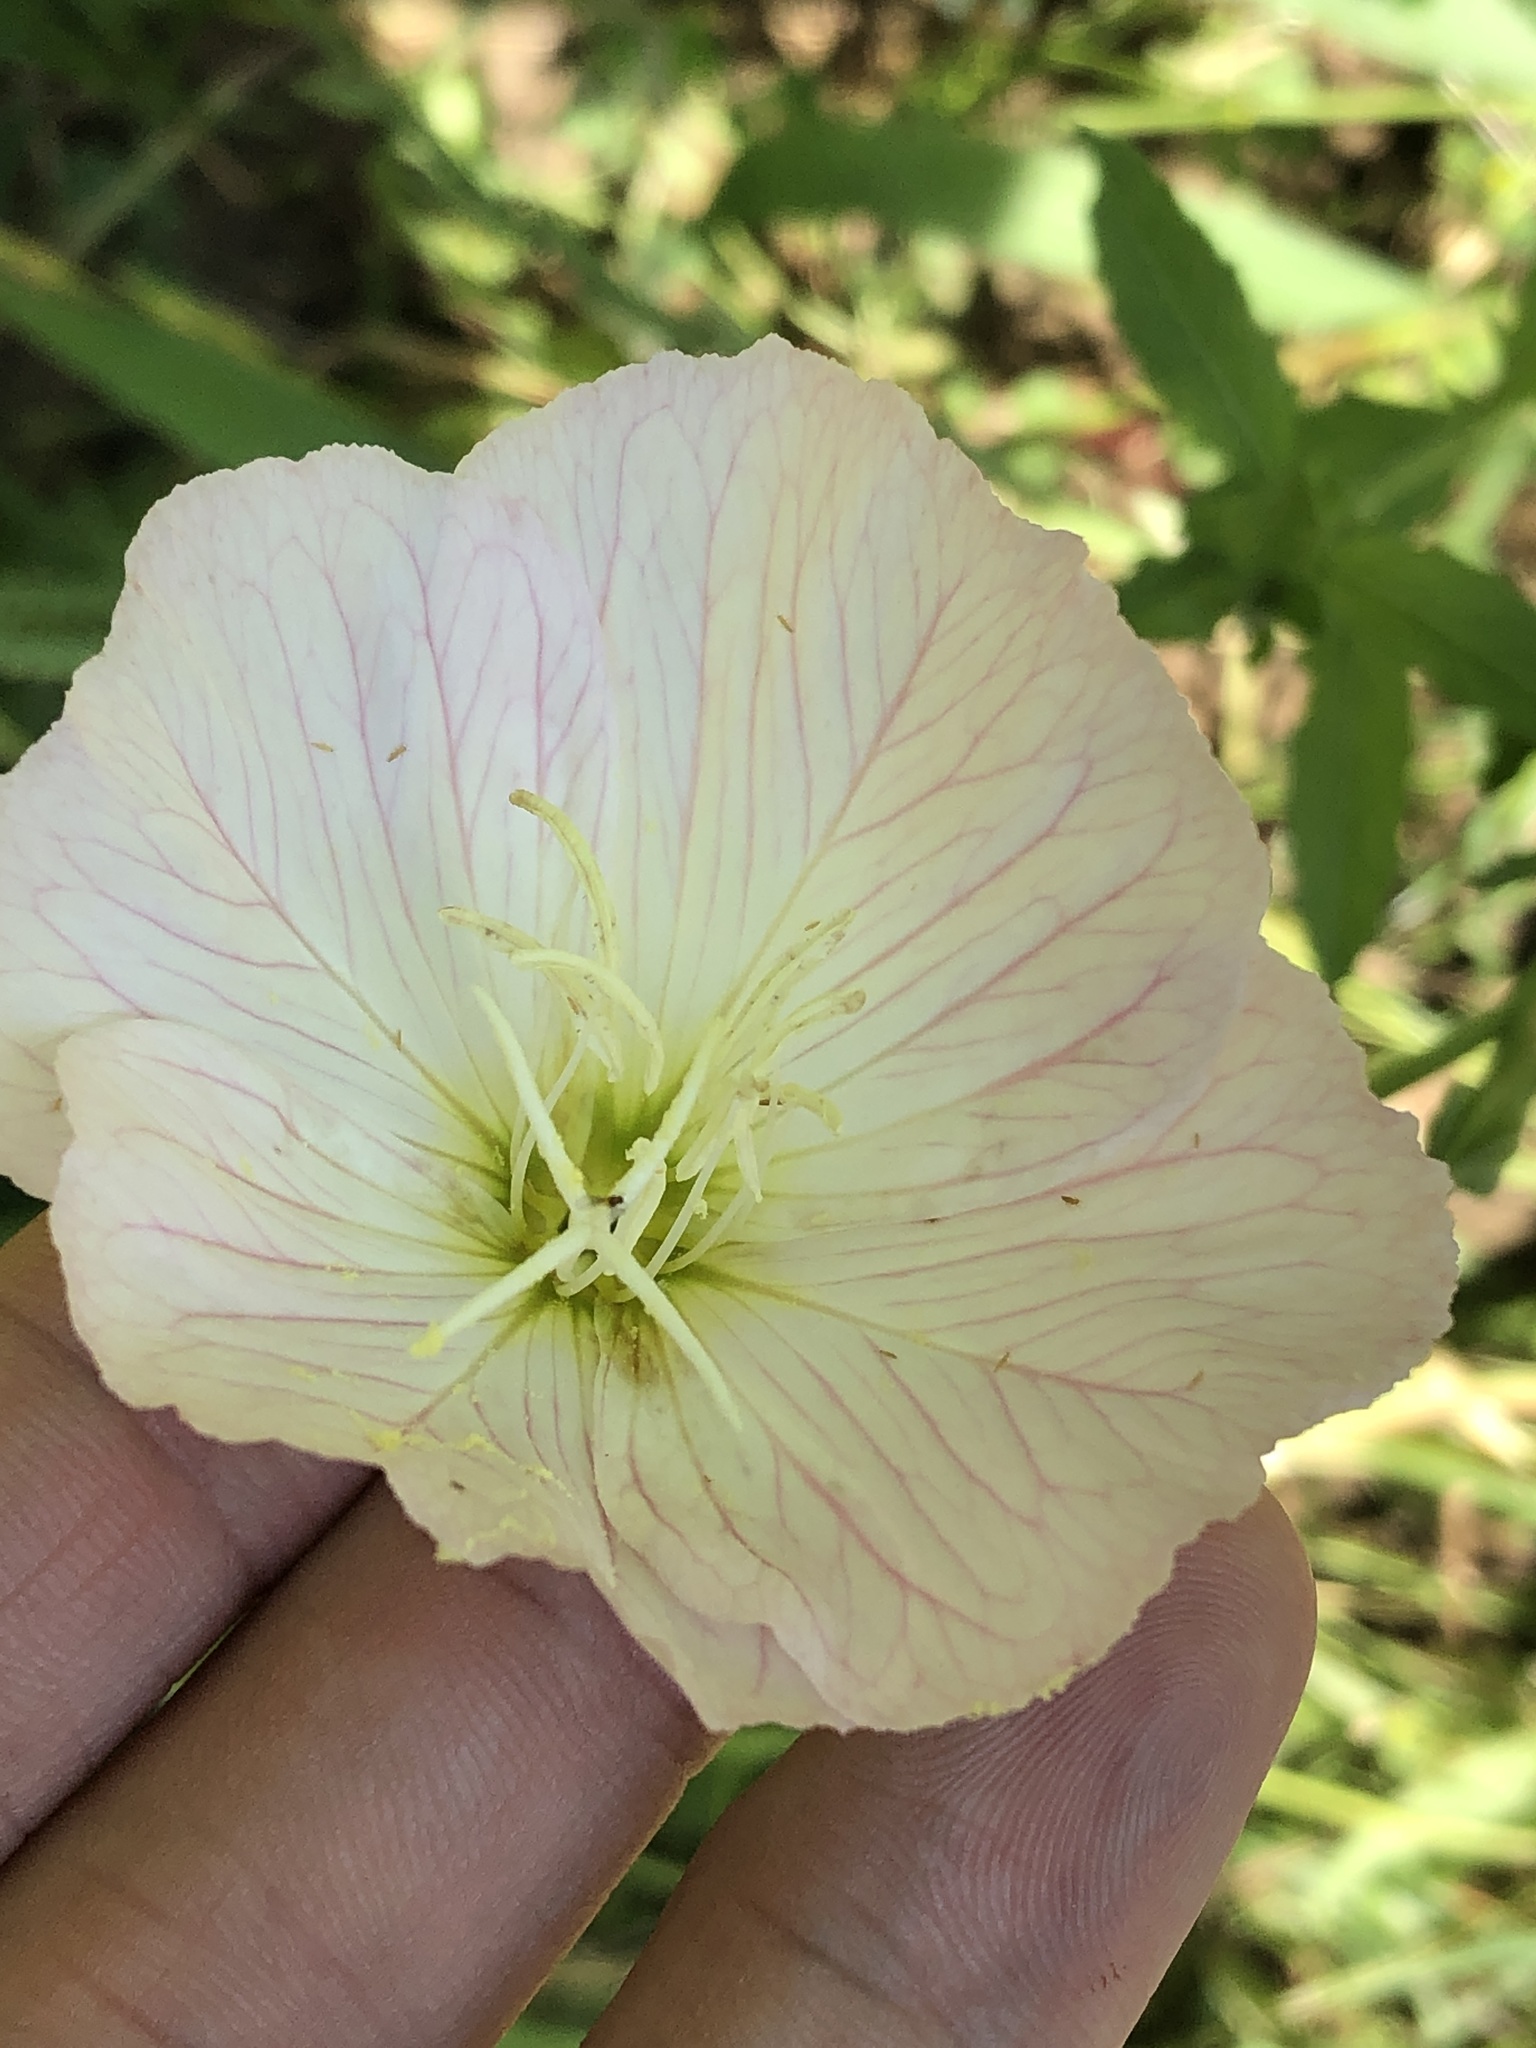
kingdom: Plantae
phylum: Tracheophyta
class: Magnoliopsida
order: Myrtales
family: Onagraceae
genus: Oenothera
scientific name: Oenothera speciosa
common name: White evening-primrose
